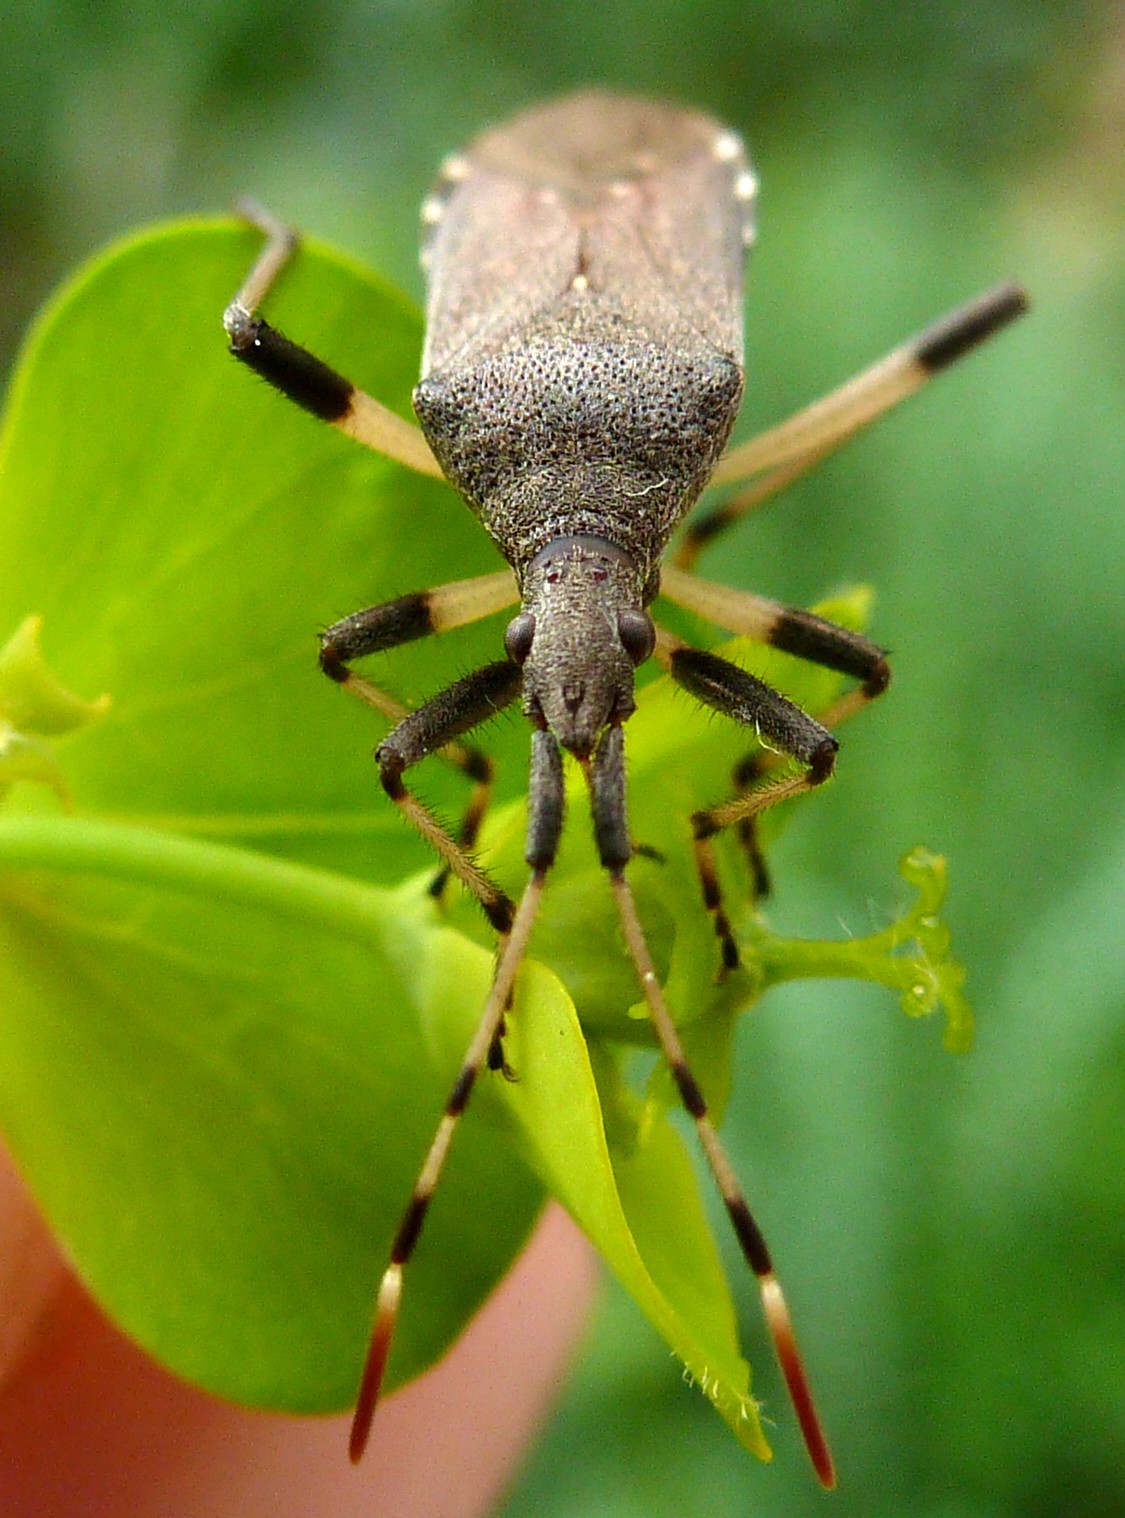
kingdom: Animalia
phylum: Arthropoda
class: Insecta
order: Hemiptera
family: Stenocephalidae
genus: Dicranocephalus
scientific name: Dicranocephalus albipes
